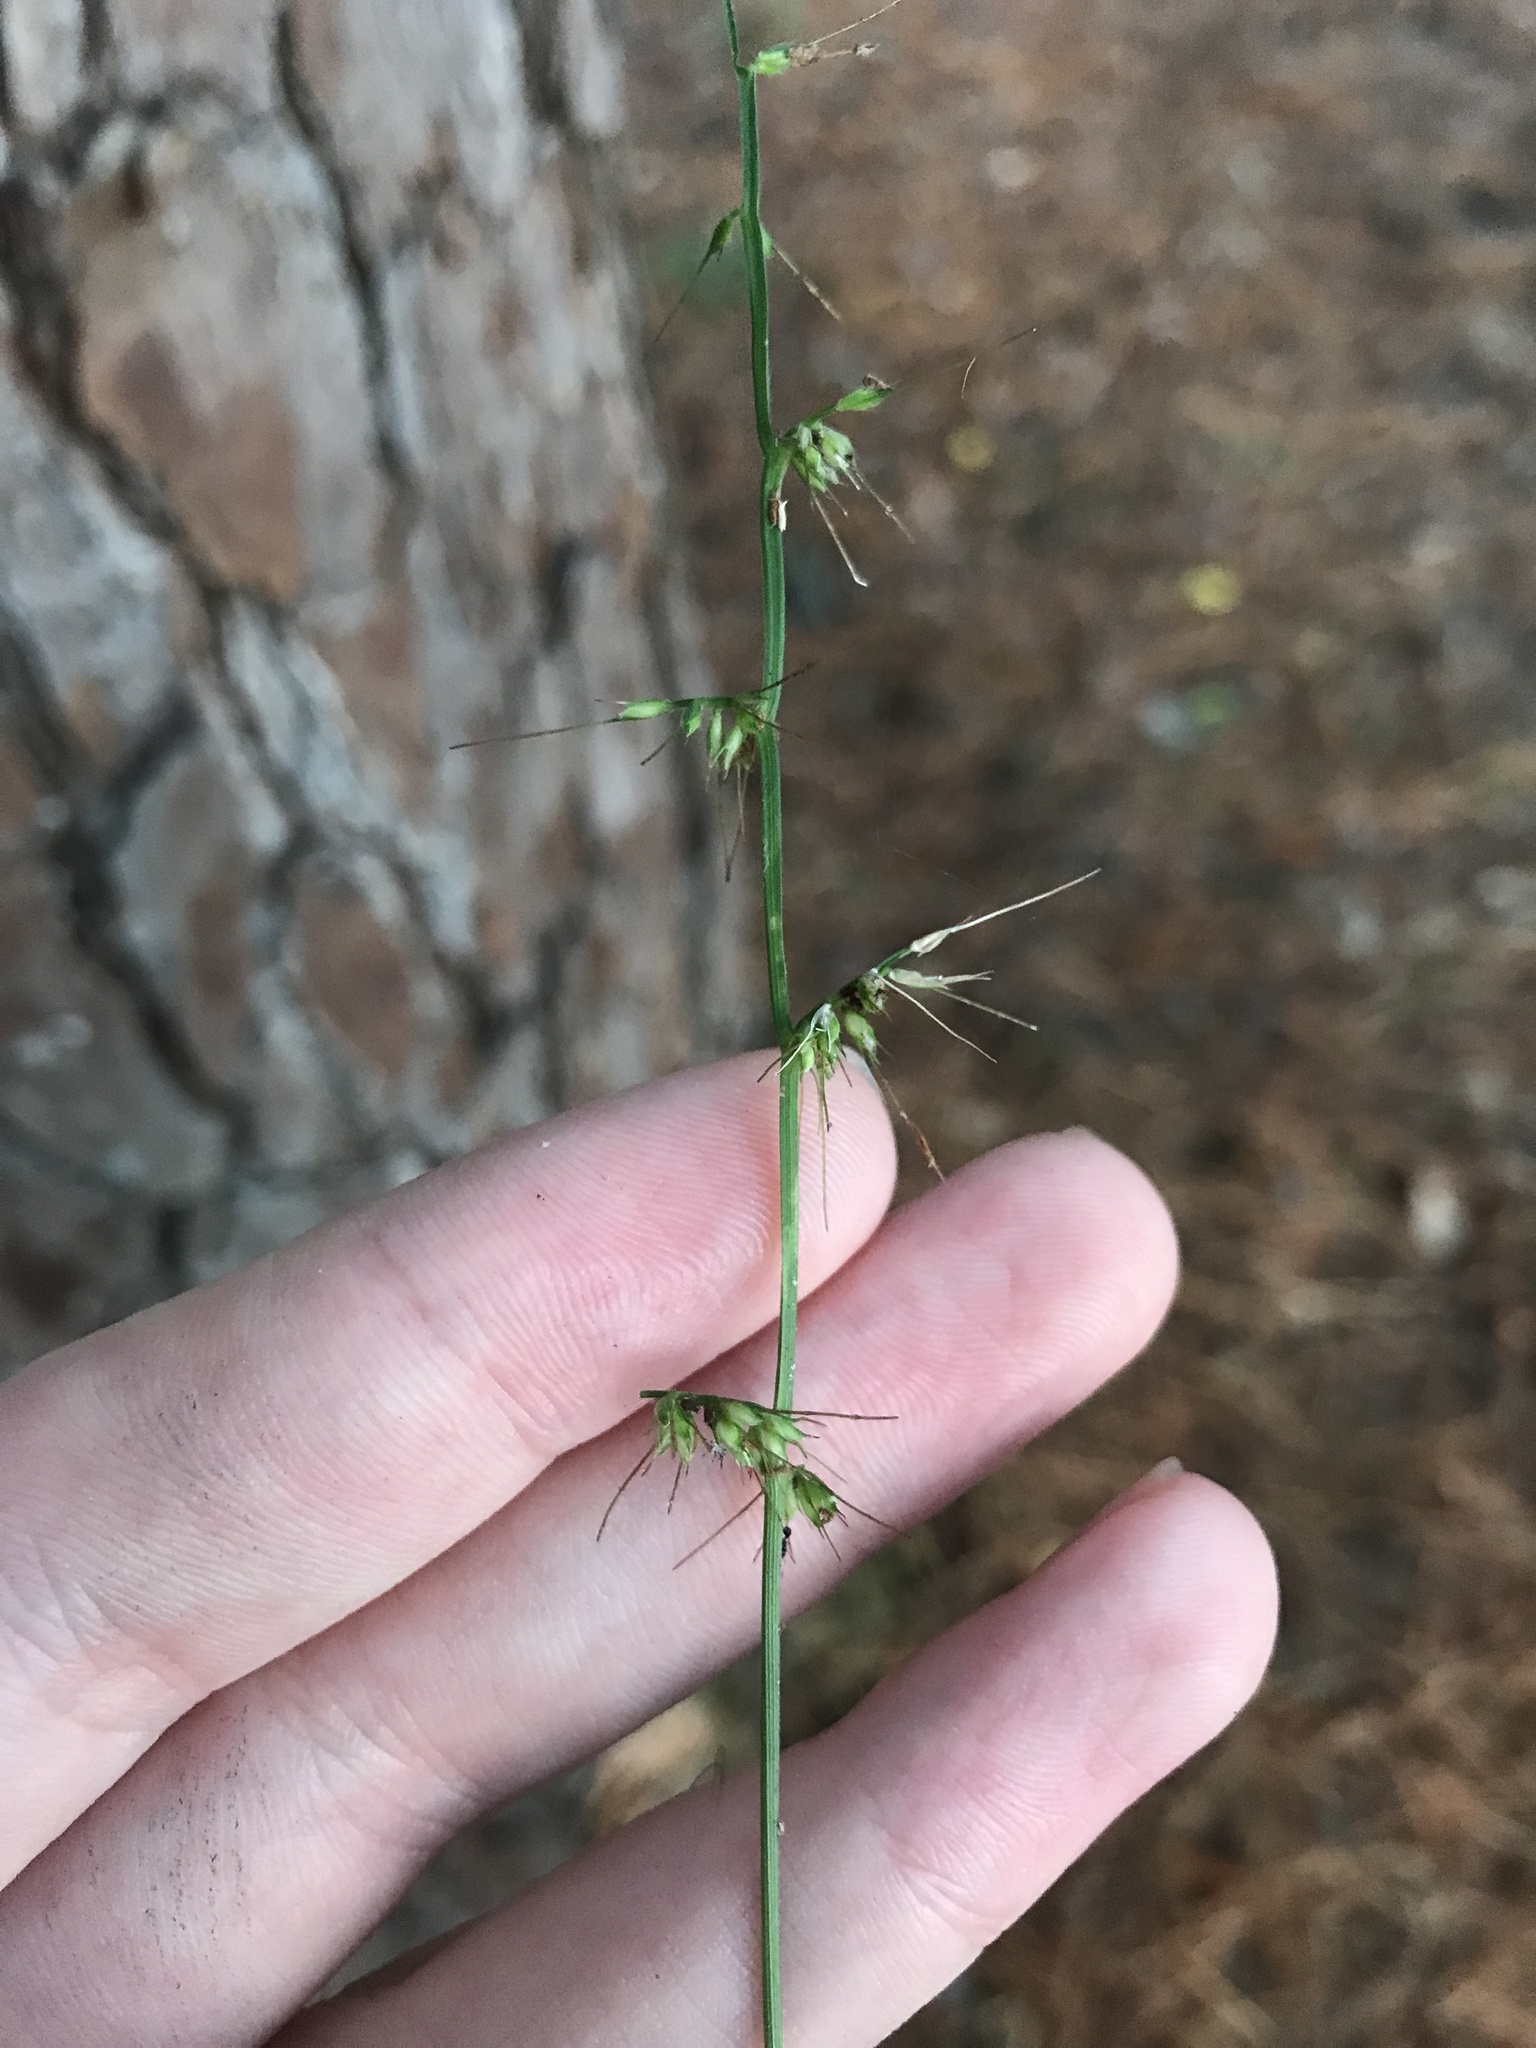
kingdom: Plantae
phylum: Tracheophyta
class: Liliopsida
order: Poales
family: Poaceae
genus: Oplismenus
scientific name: Oplismenus hirtellus
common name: Basketgrass
